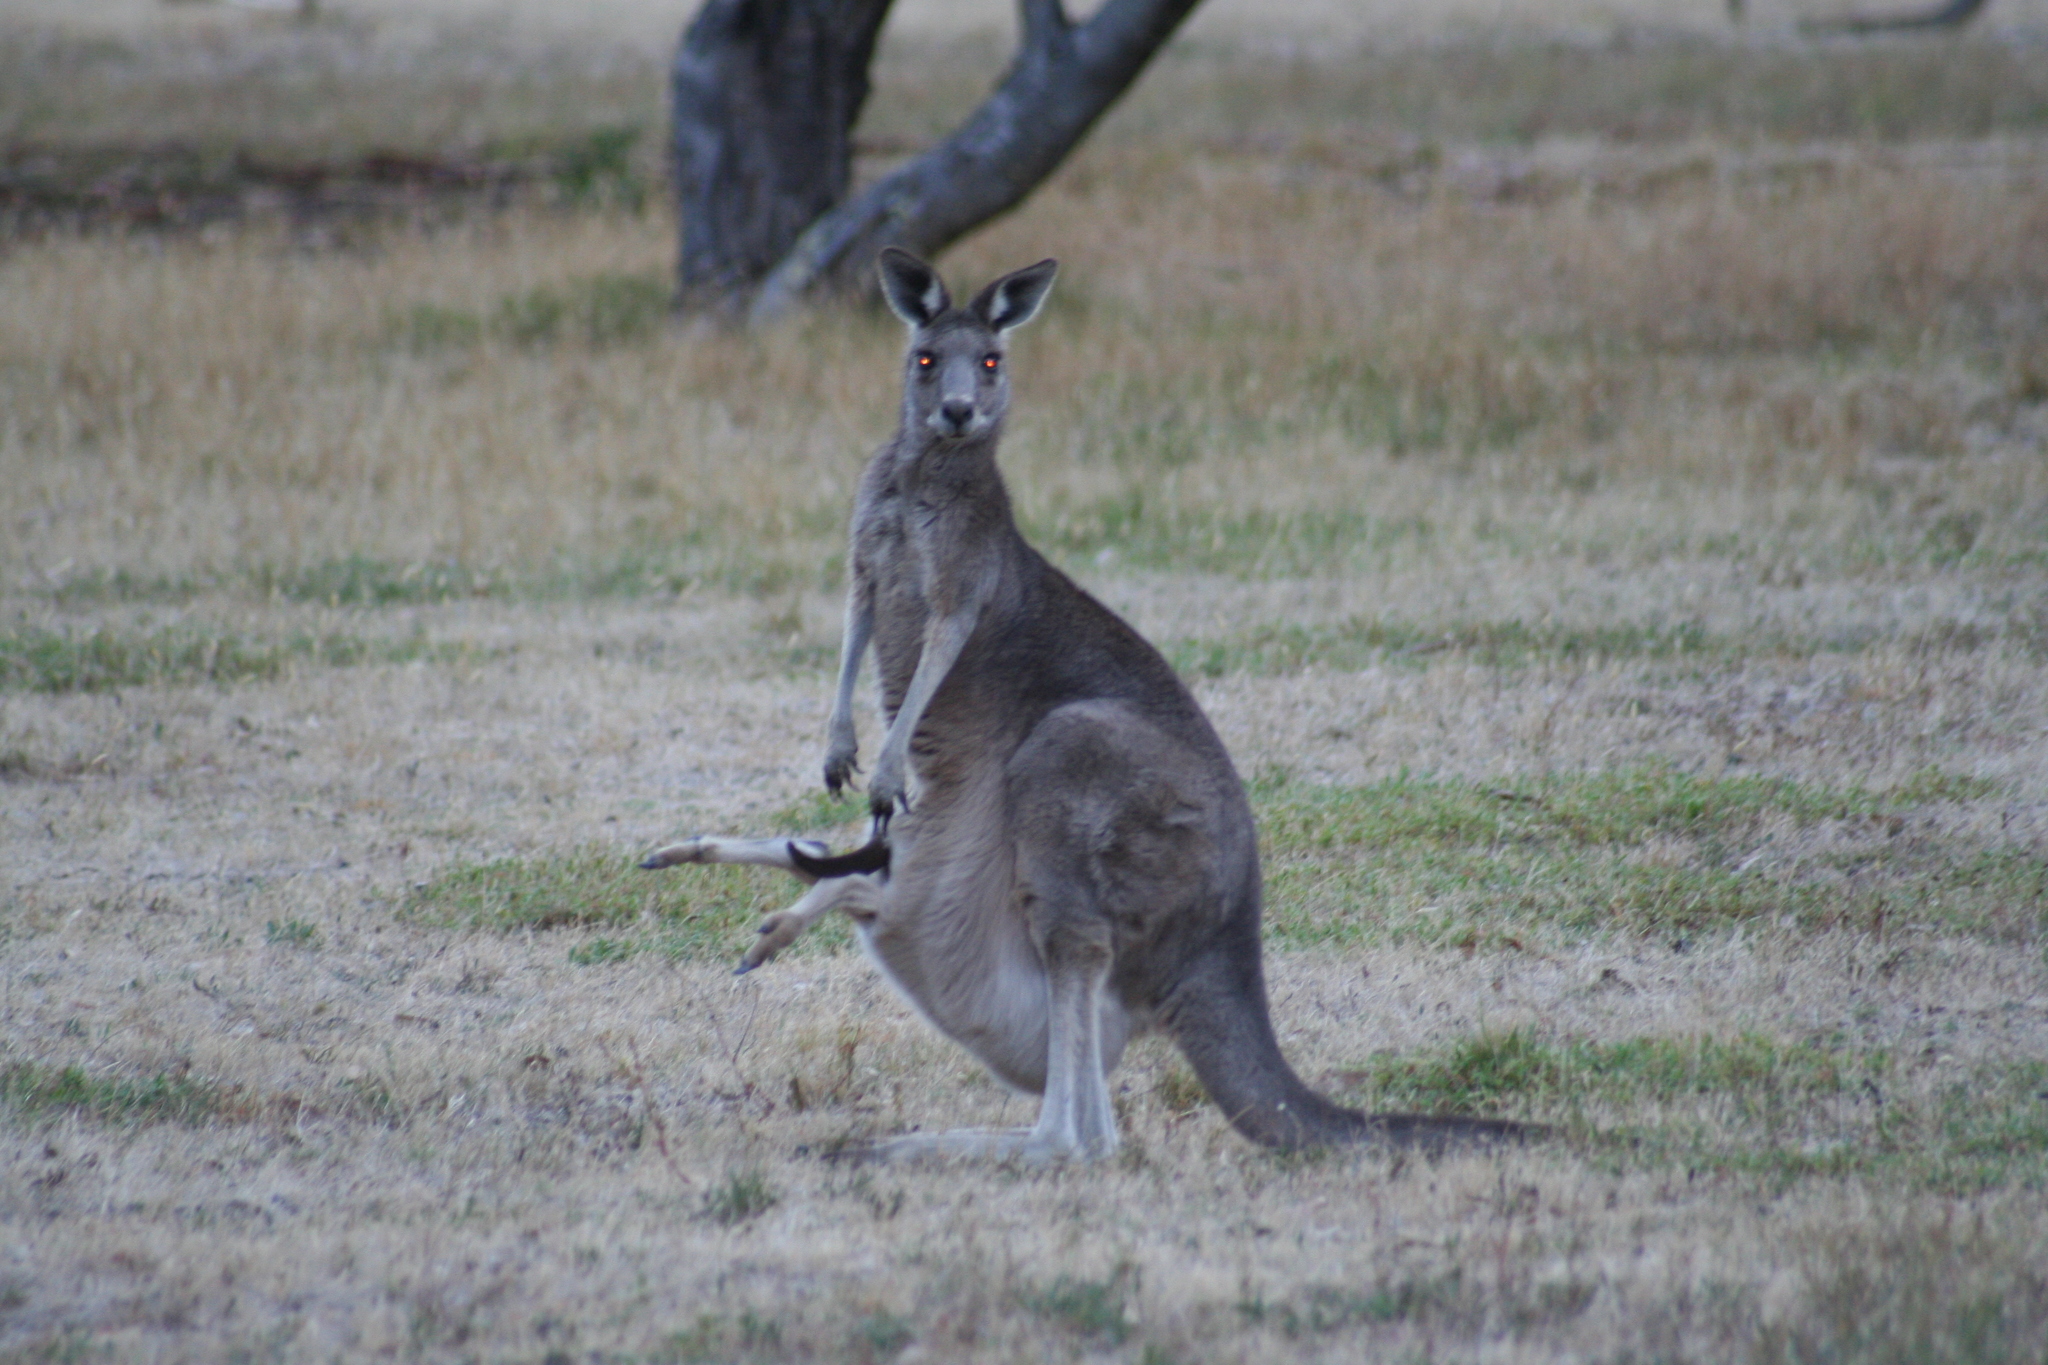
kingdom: Animalia
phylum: Chordata
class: Mammalia
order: Diprotodontia
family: Macropodidae
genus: Macropus
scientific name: Macropus giganteus
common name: Eastern grey kangaroo
